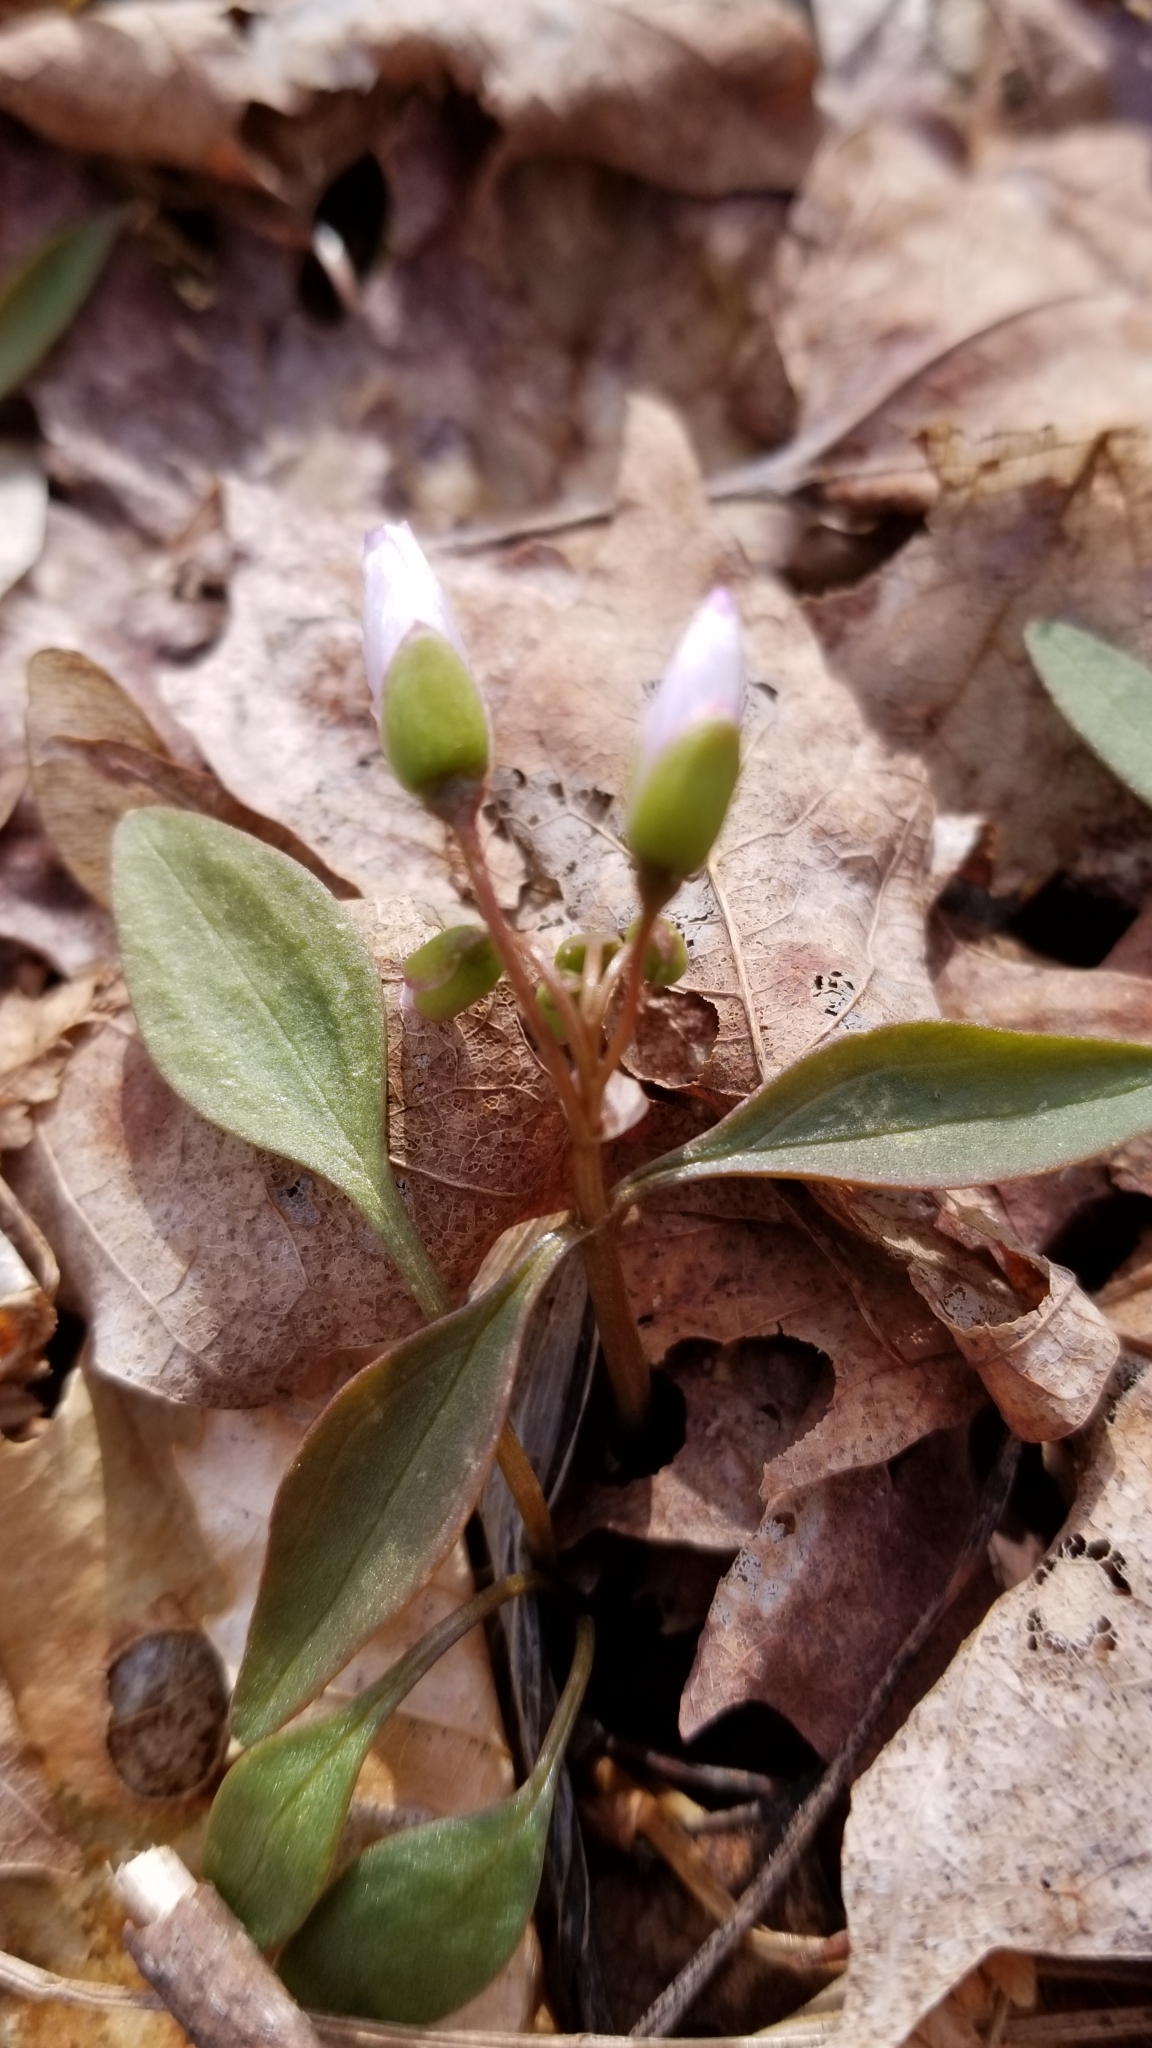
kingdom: Plantae
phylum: Tracheophyta
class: Magnoliopsida
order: Caryophyllales
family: Montiaceae
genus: Claytonia
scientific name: Claytonia caroliniana
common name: Carolina spring beauty
